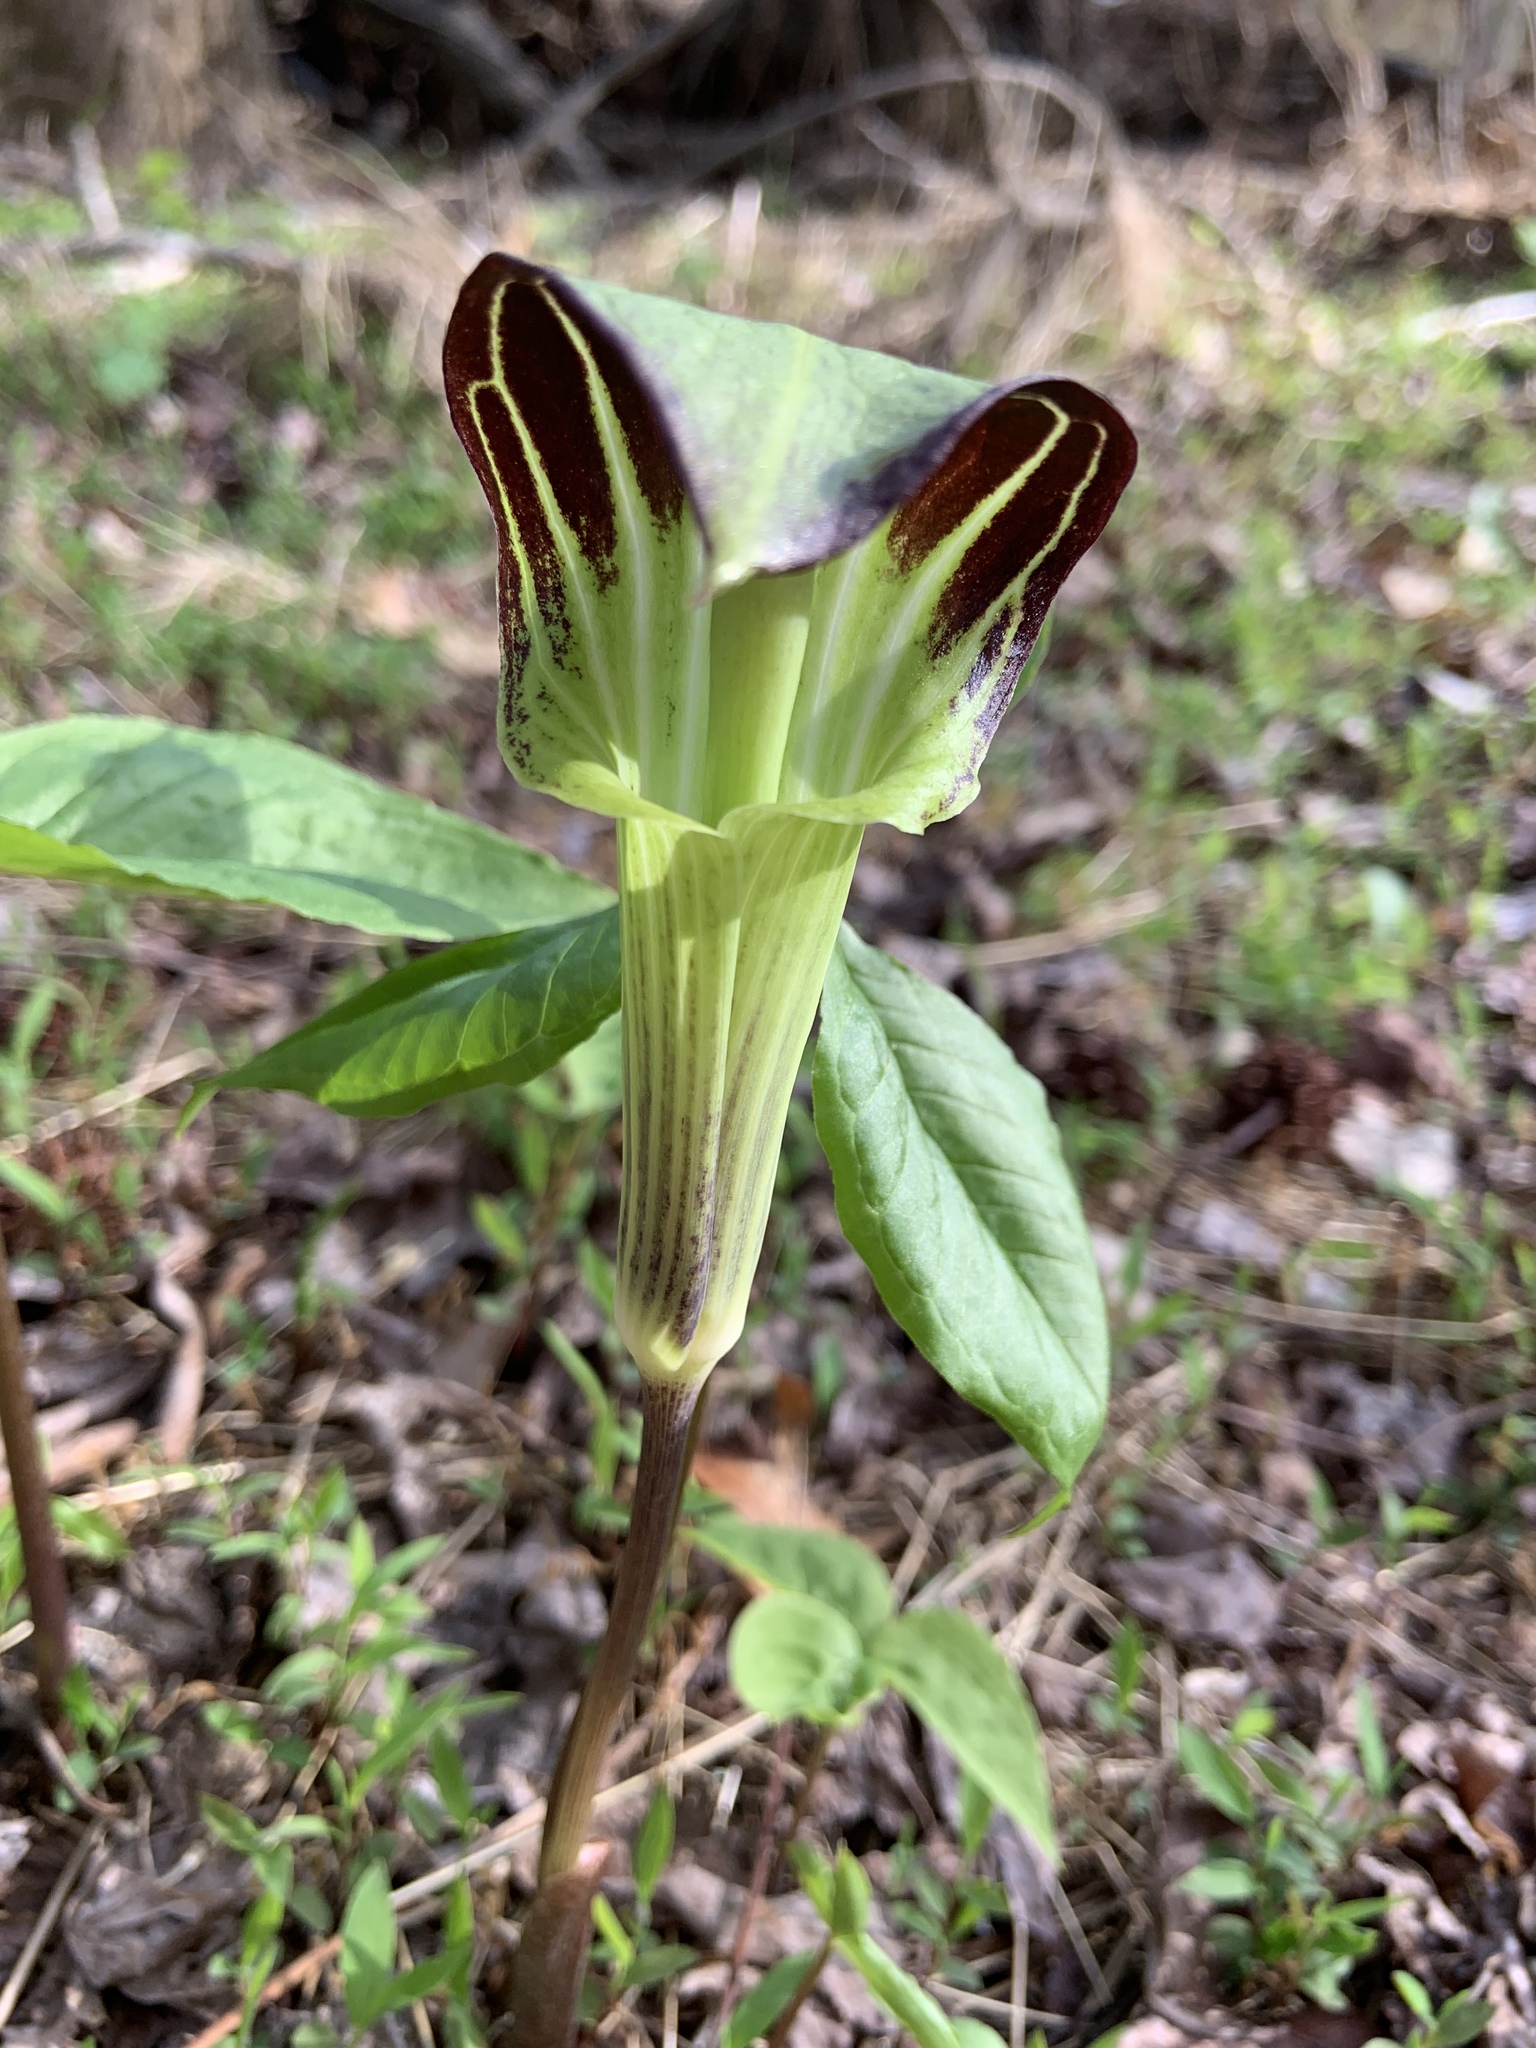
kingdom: Plantae
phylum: Tracheophyta
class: Liliopsida
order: Alismatales
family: Araceae
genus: Arisaema
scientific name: Arisaema triphyllum
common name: Jack-in-the-pulpit
